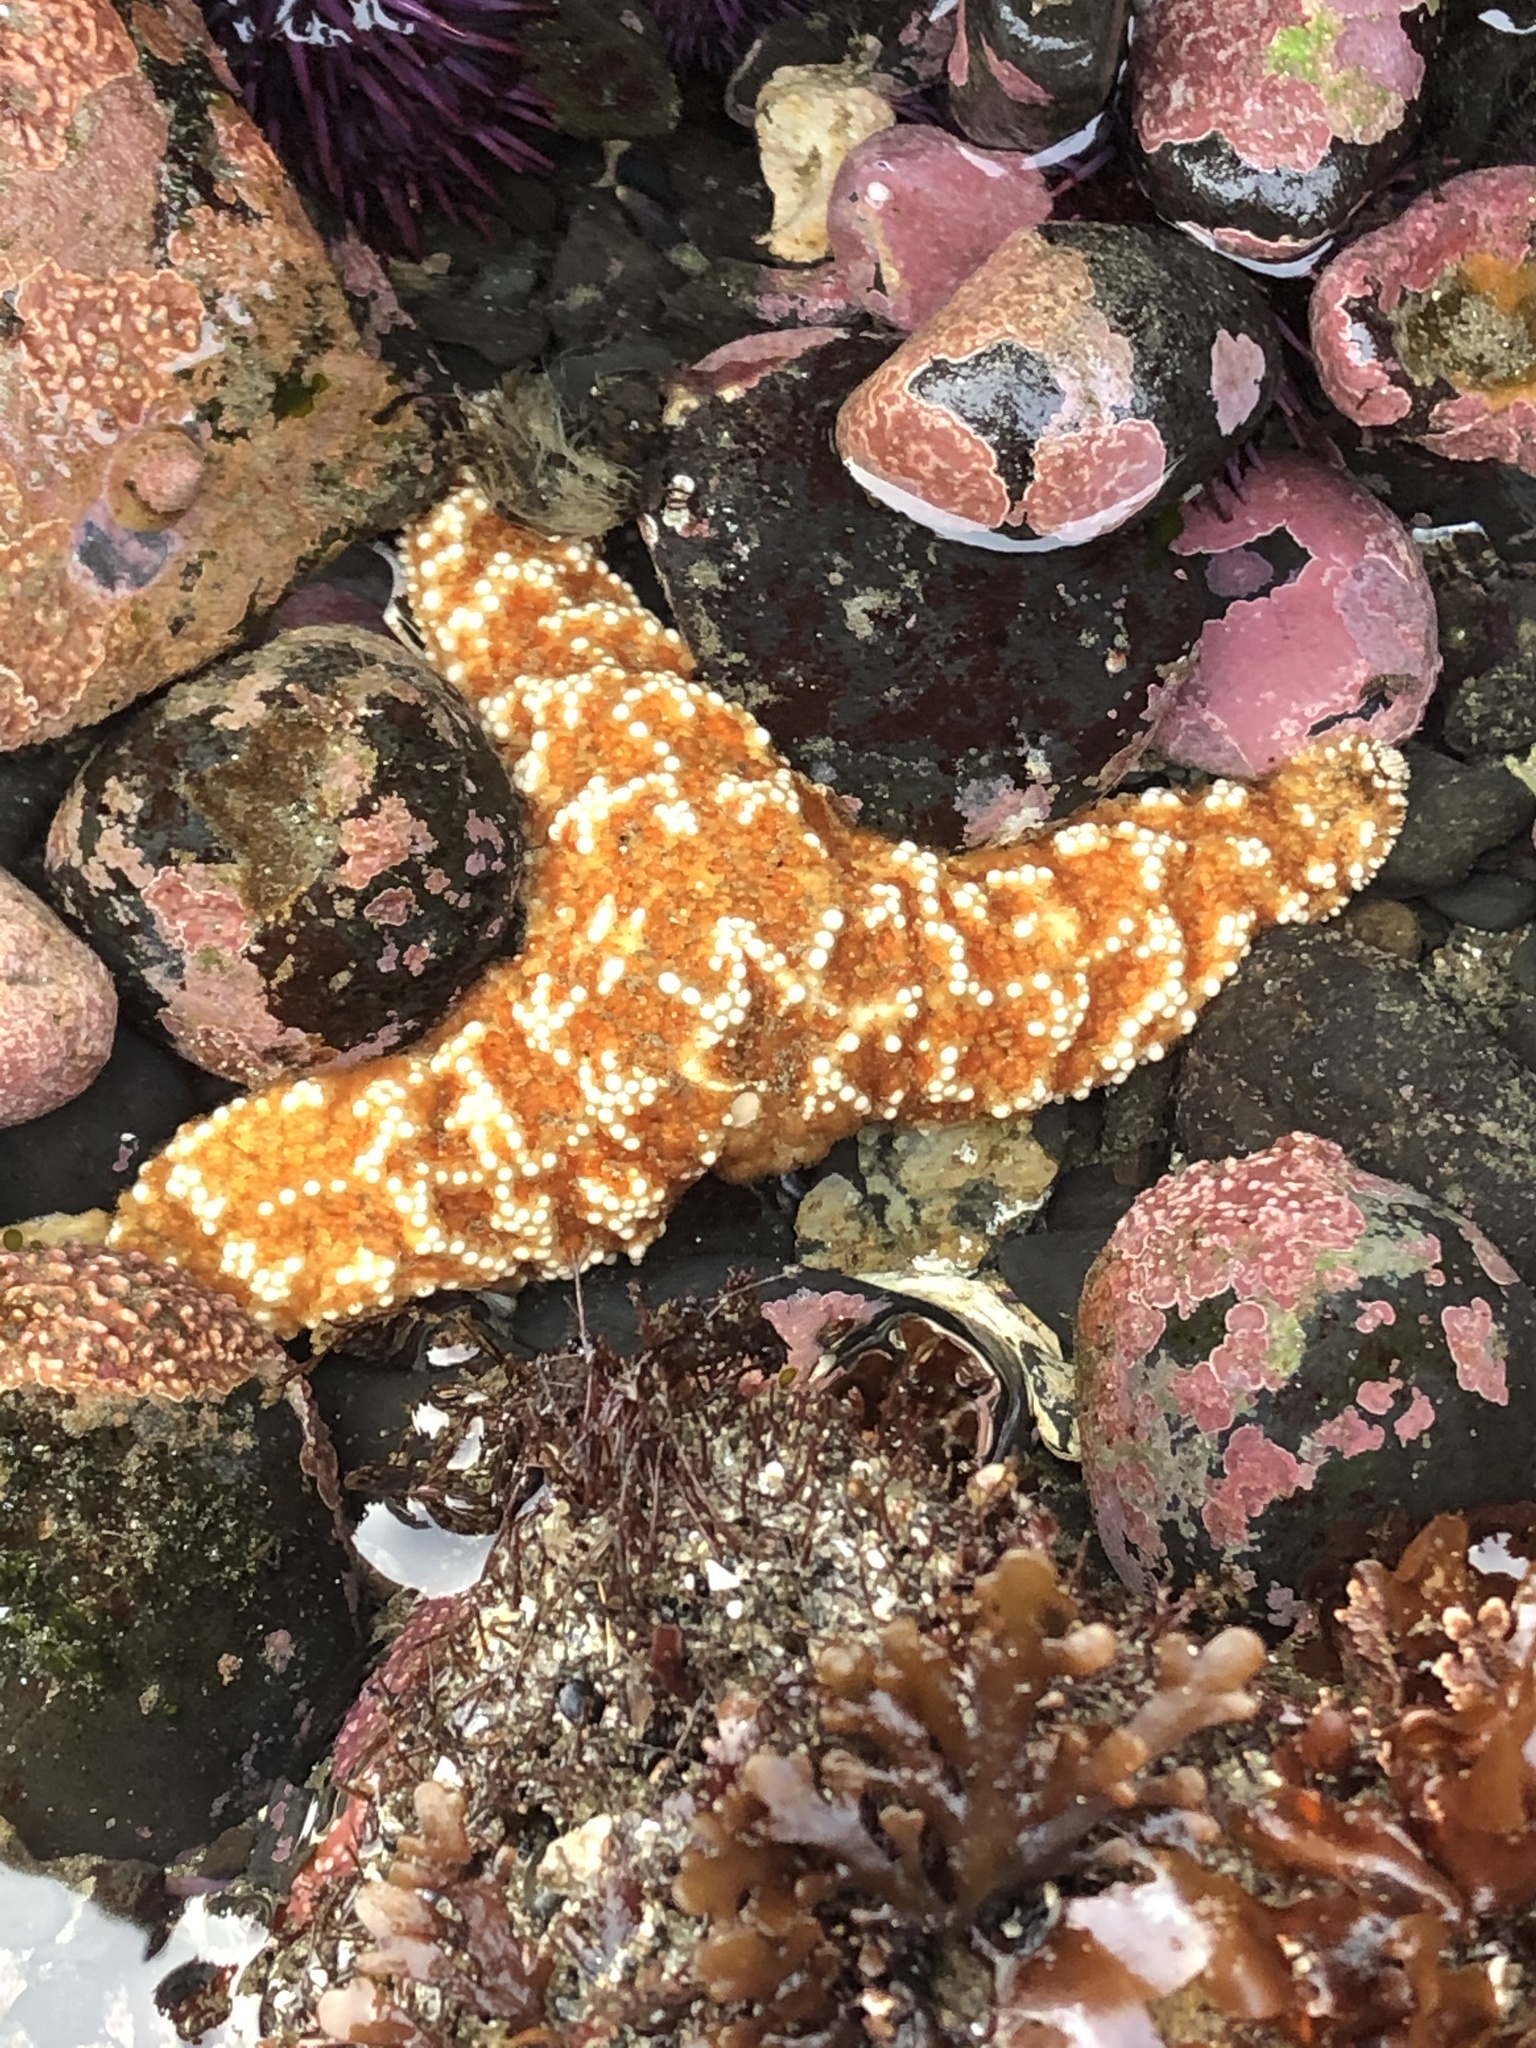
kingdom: Animalia
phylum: Echinodermata
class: Asteroidea
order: Forcipulatida
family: Asteriidae
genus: Pisaster
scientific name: Pisaster ochraceus
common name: Ochre stars
